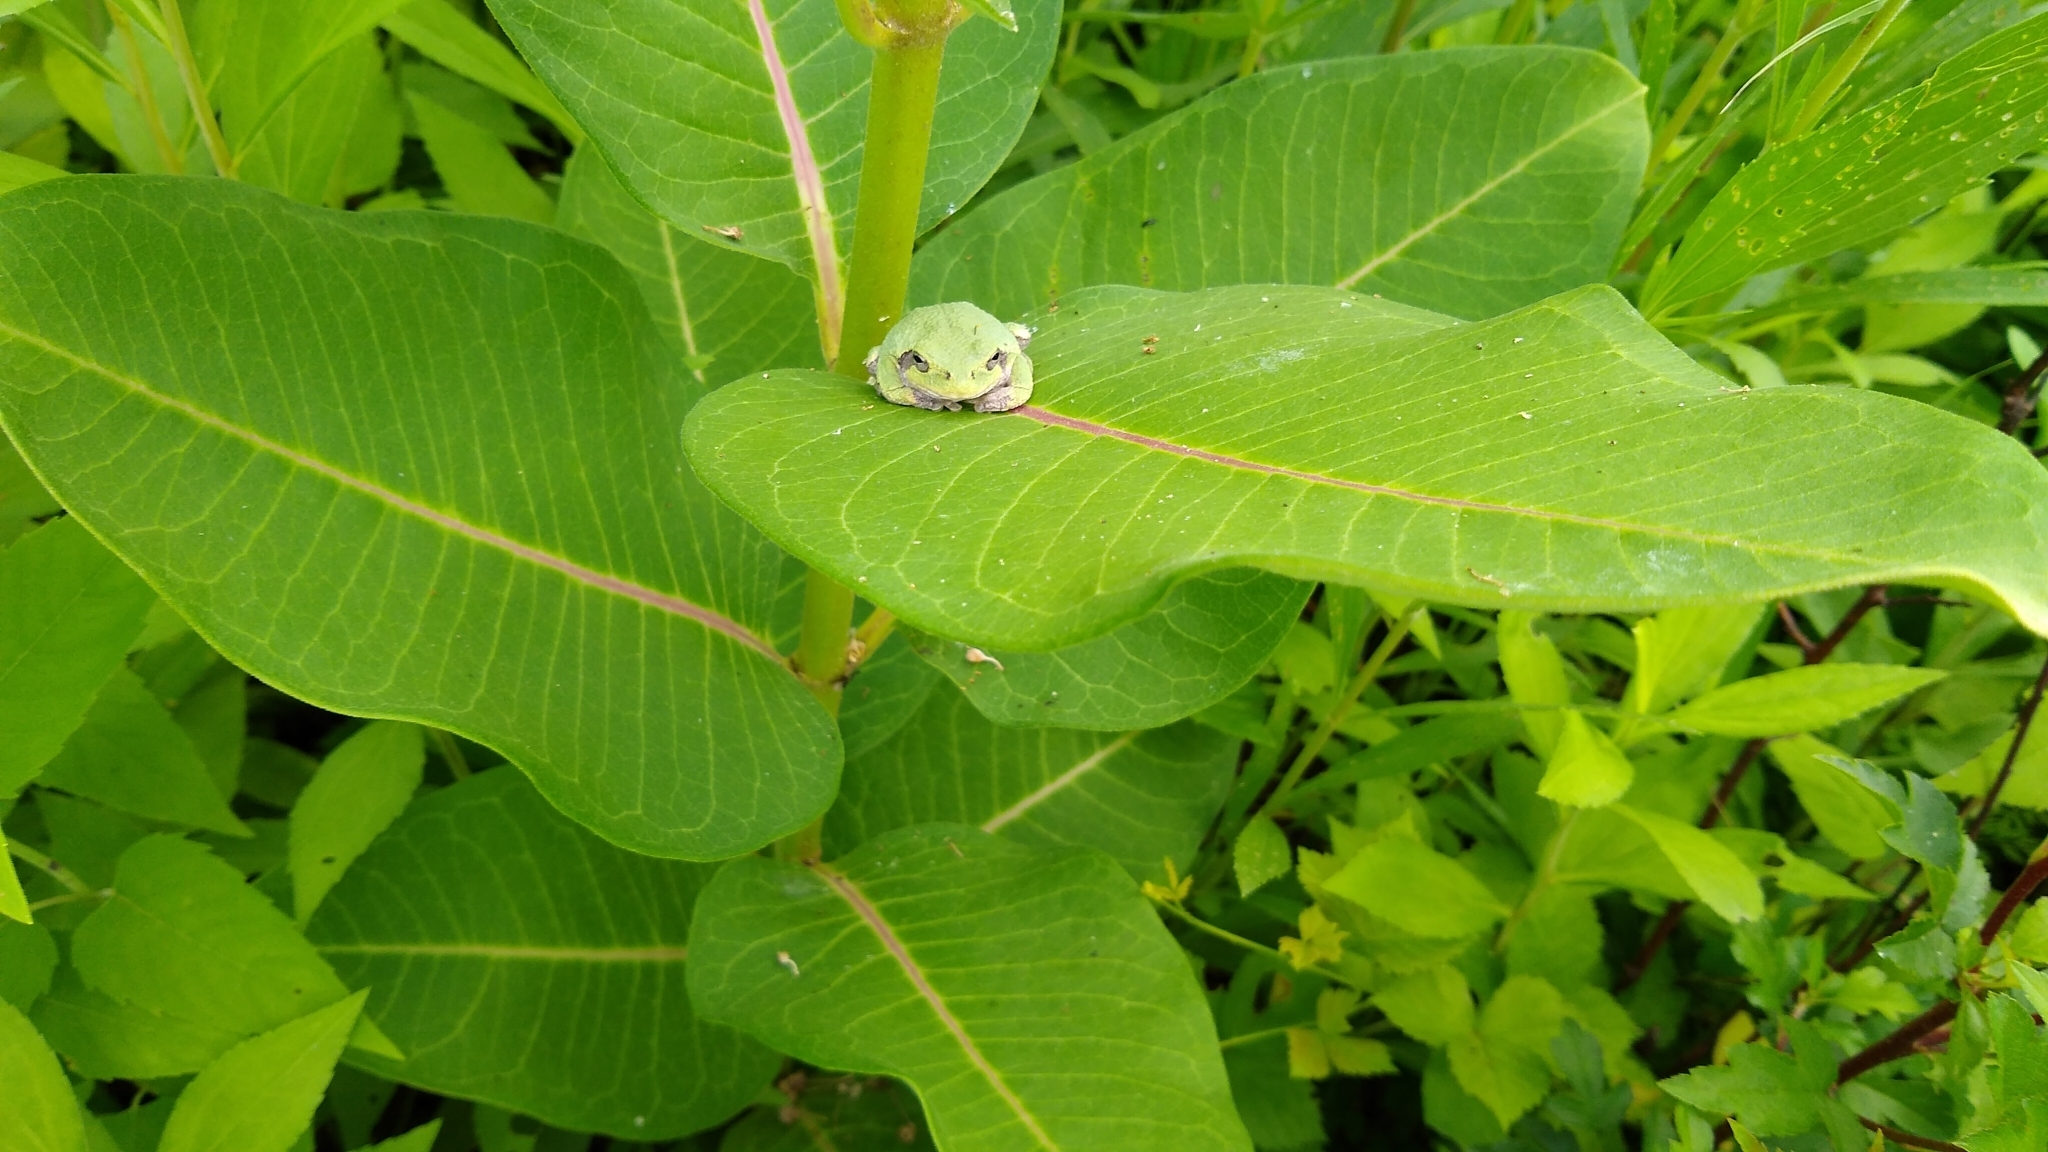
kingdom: Animalia
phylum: Chordata
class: Amphibia
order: Anura
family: Hylidae
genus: Hyla
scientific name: Hyla
